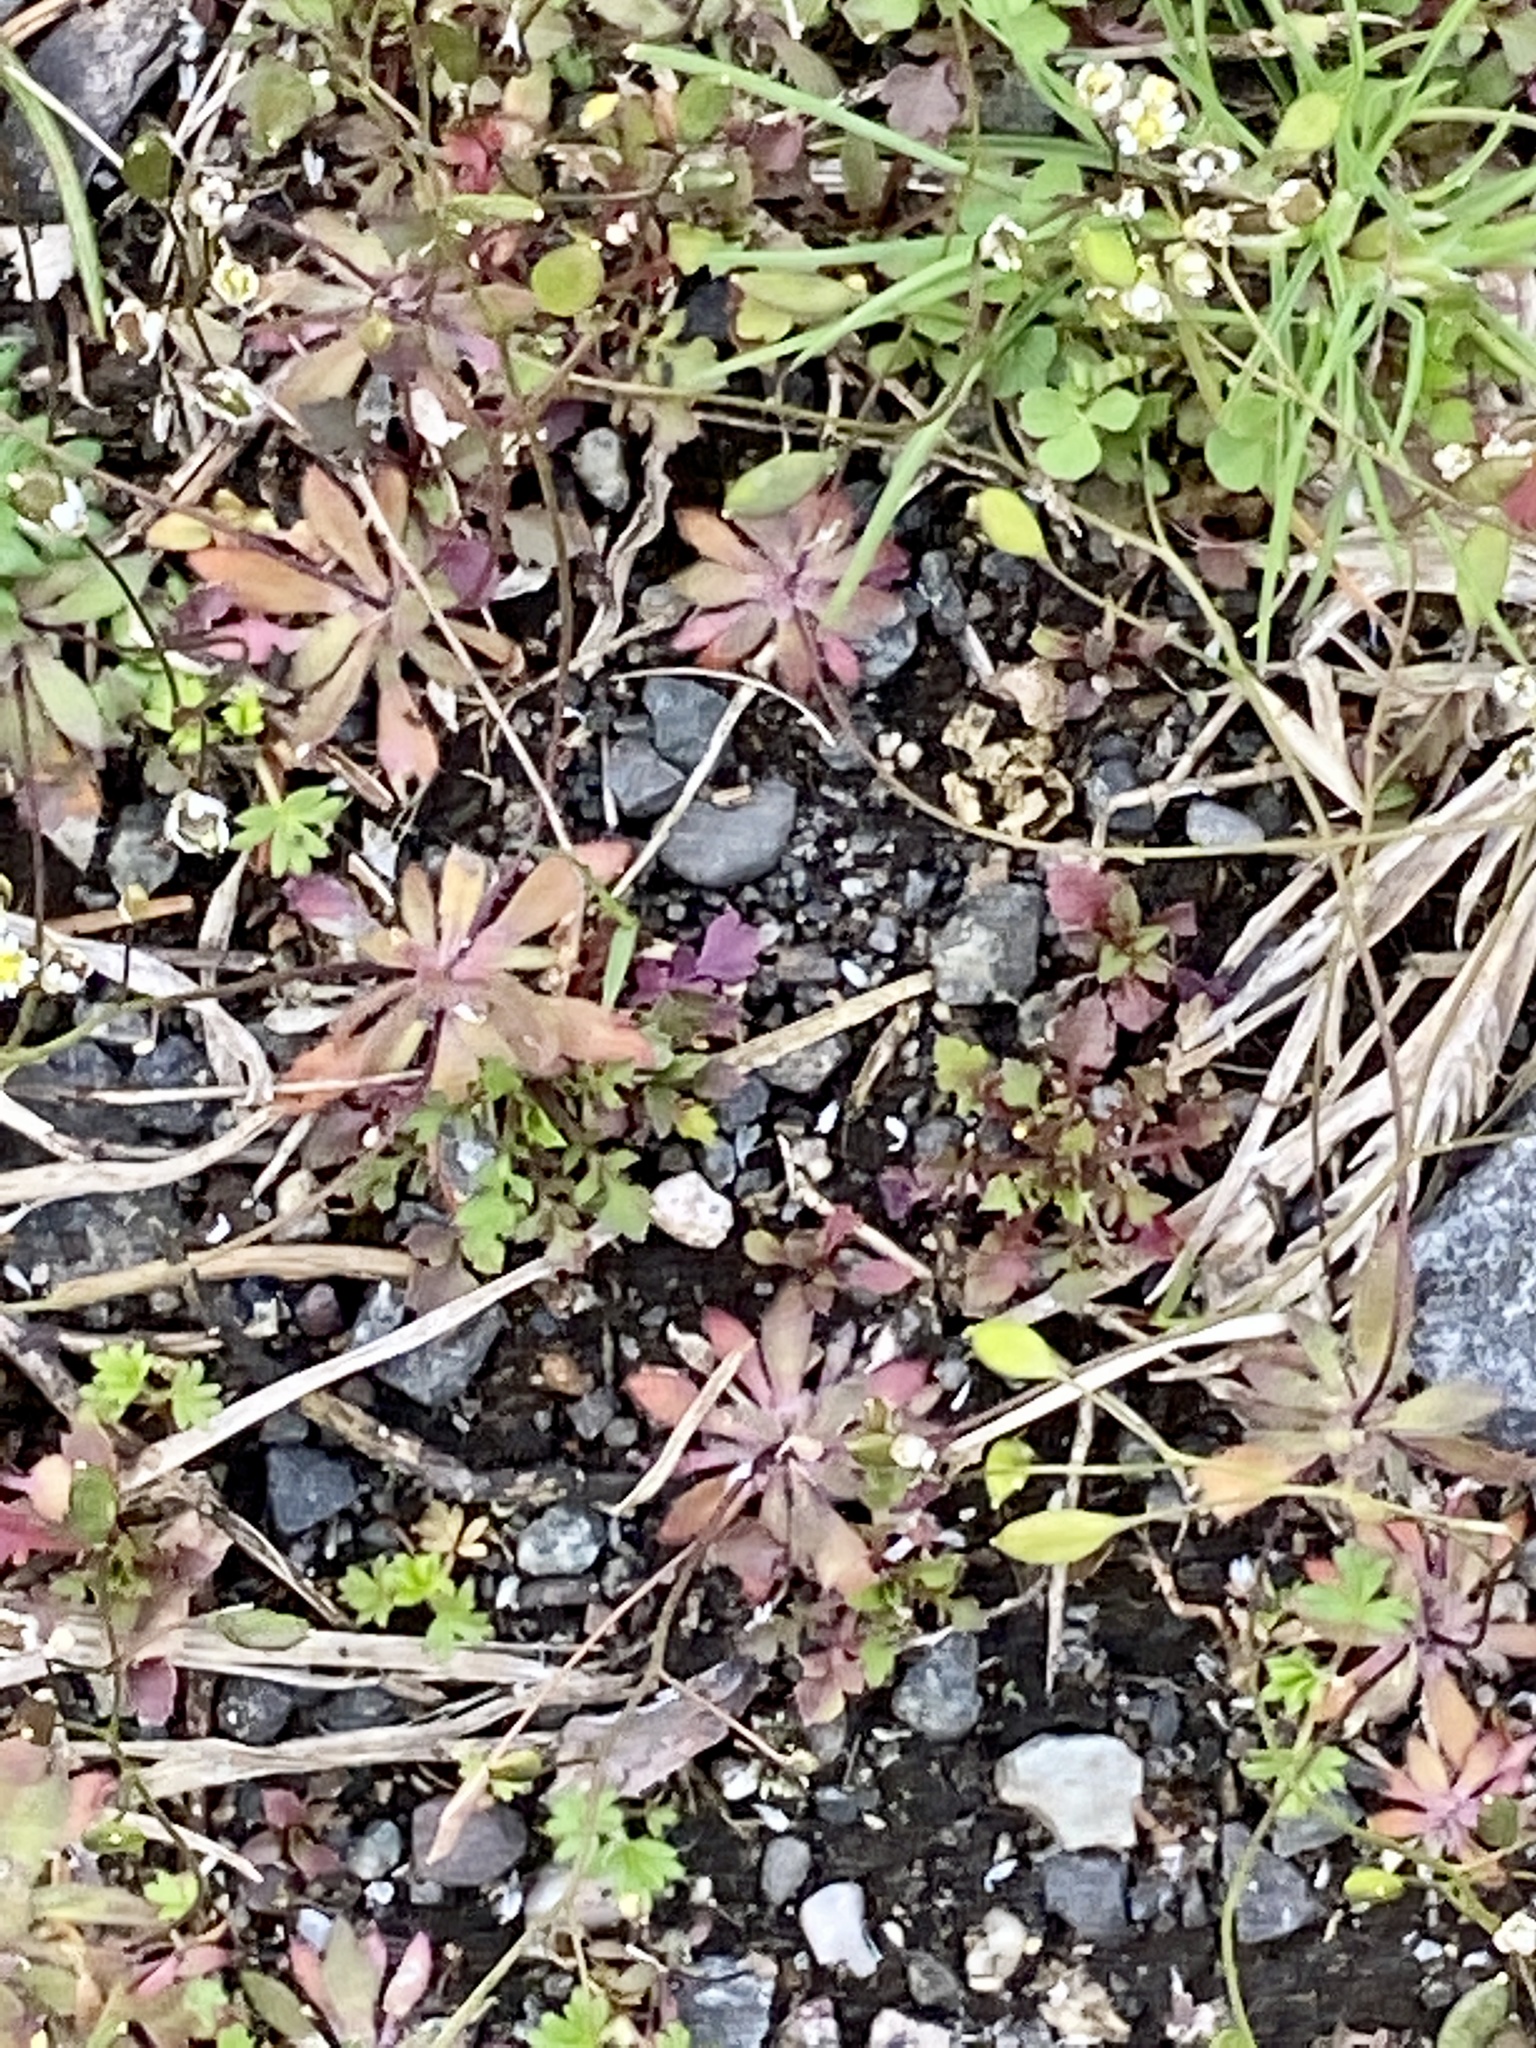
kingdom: Plantae
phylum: Tracheophyta
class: Magnoliopsida
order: Brassicales
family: Brassicaceae
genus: Draba
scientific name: Draba verna
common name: Spring draba
